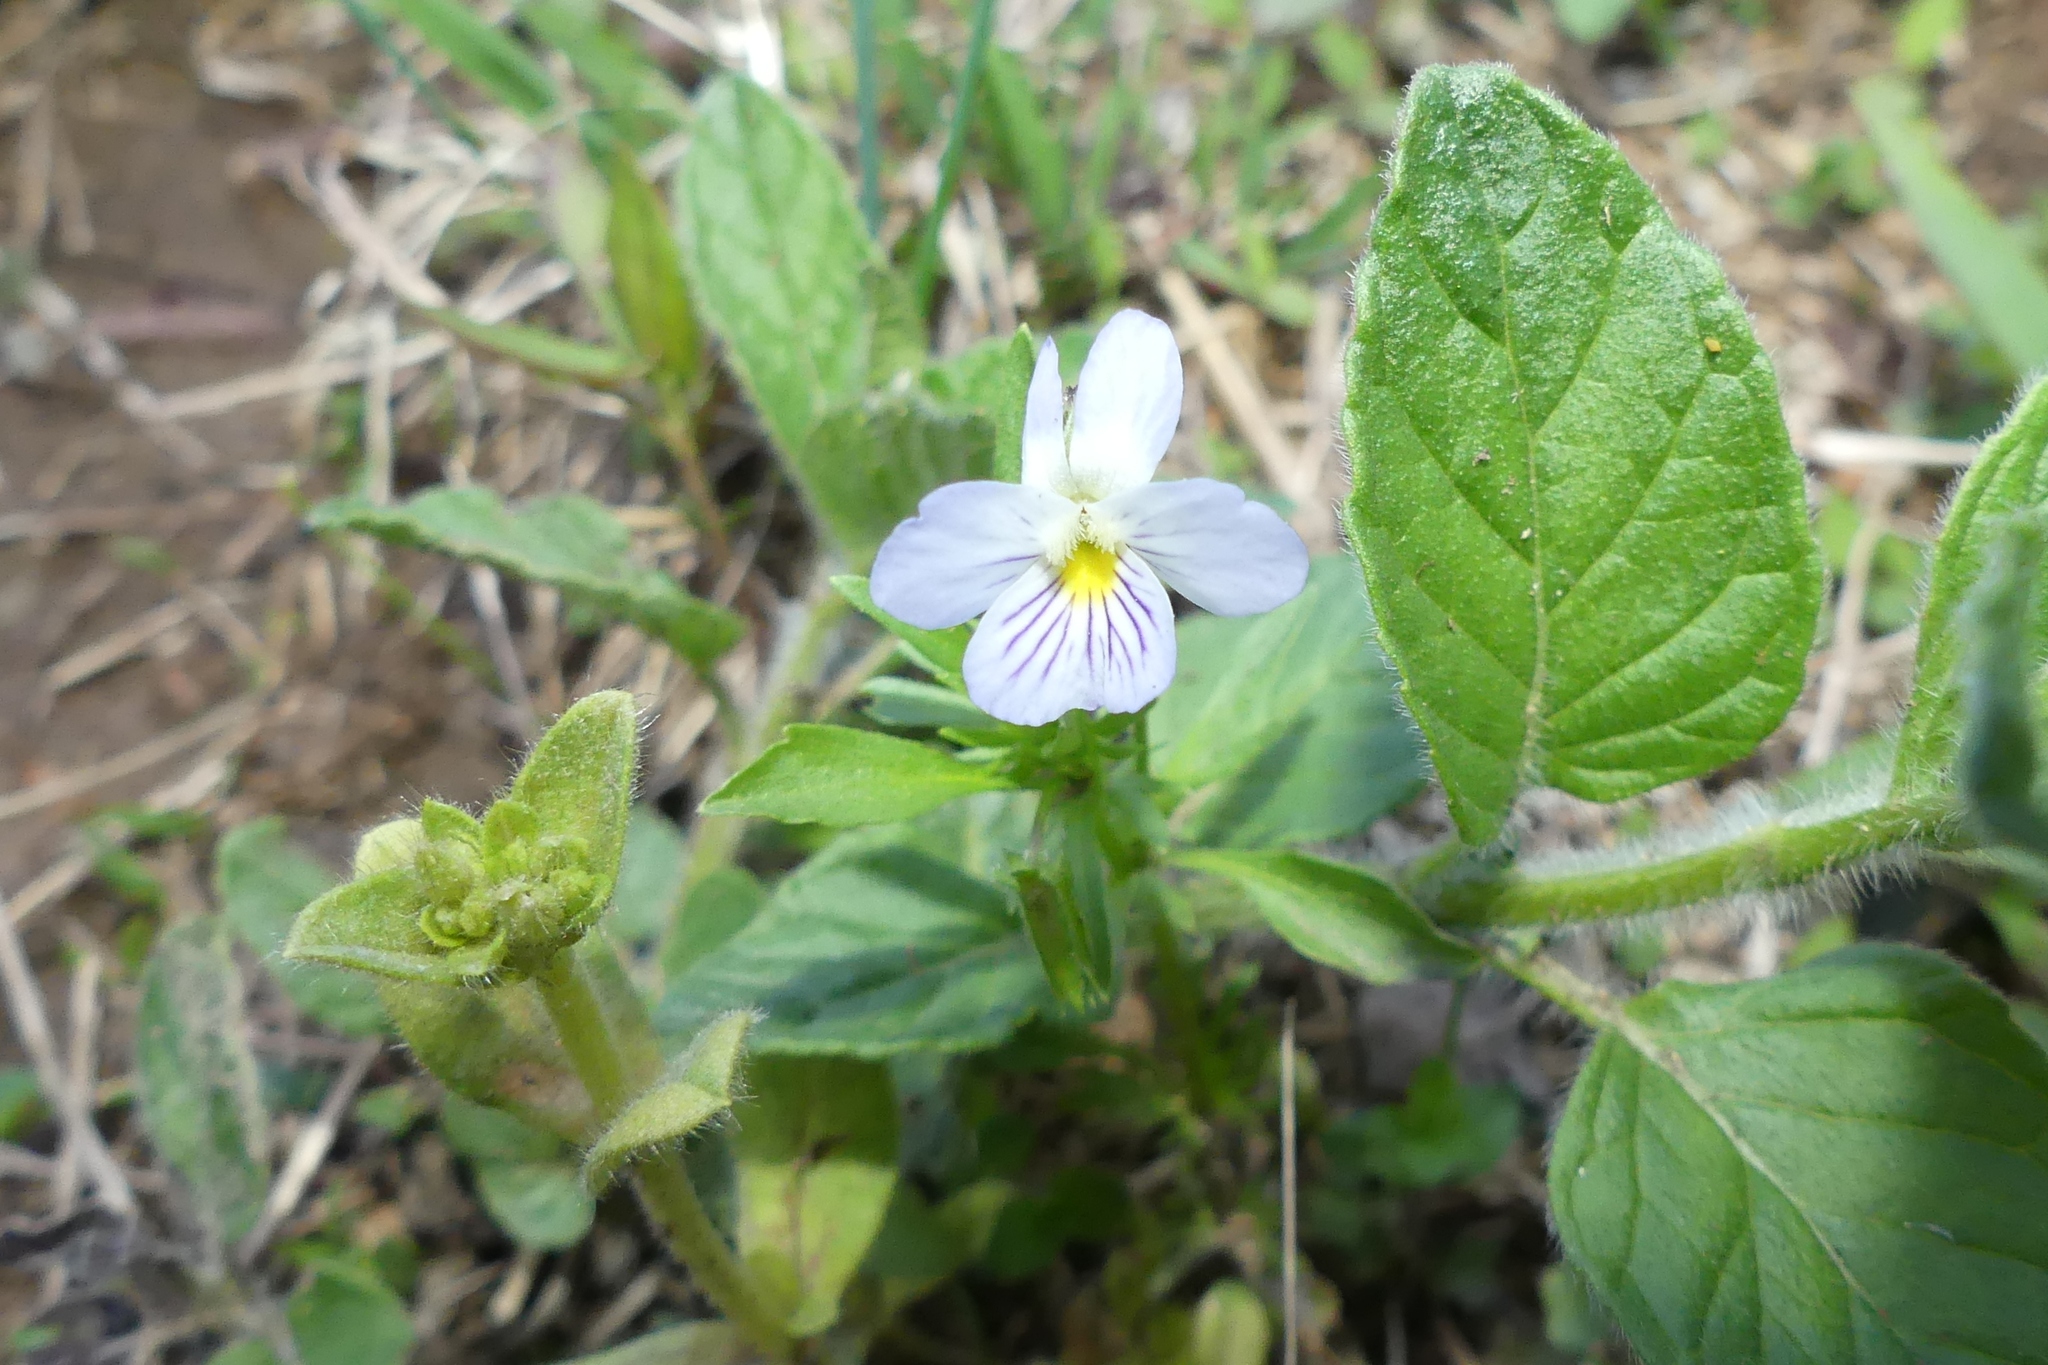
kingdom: Plantae
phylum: Tracheophyta
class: Magnoliopsida
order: Malpighiales
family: Violaceae
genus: Viola
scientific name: Viola rafinesquei
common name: American field pansy
